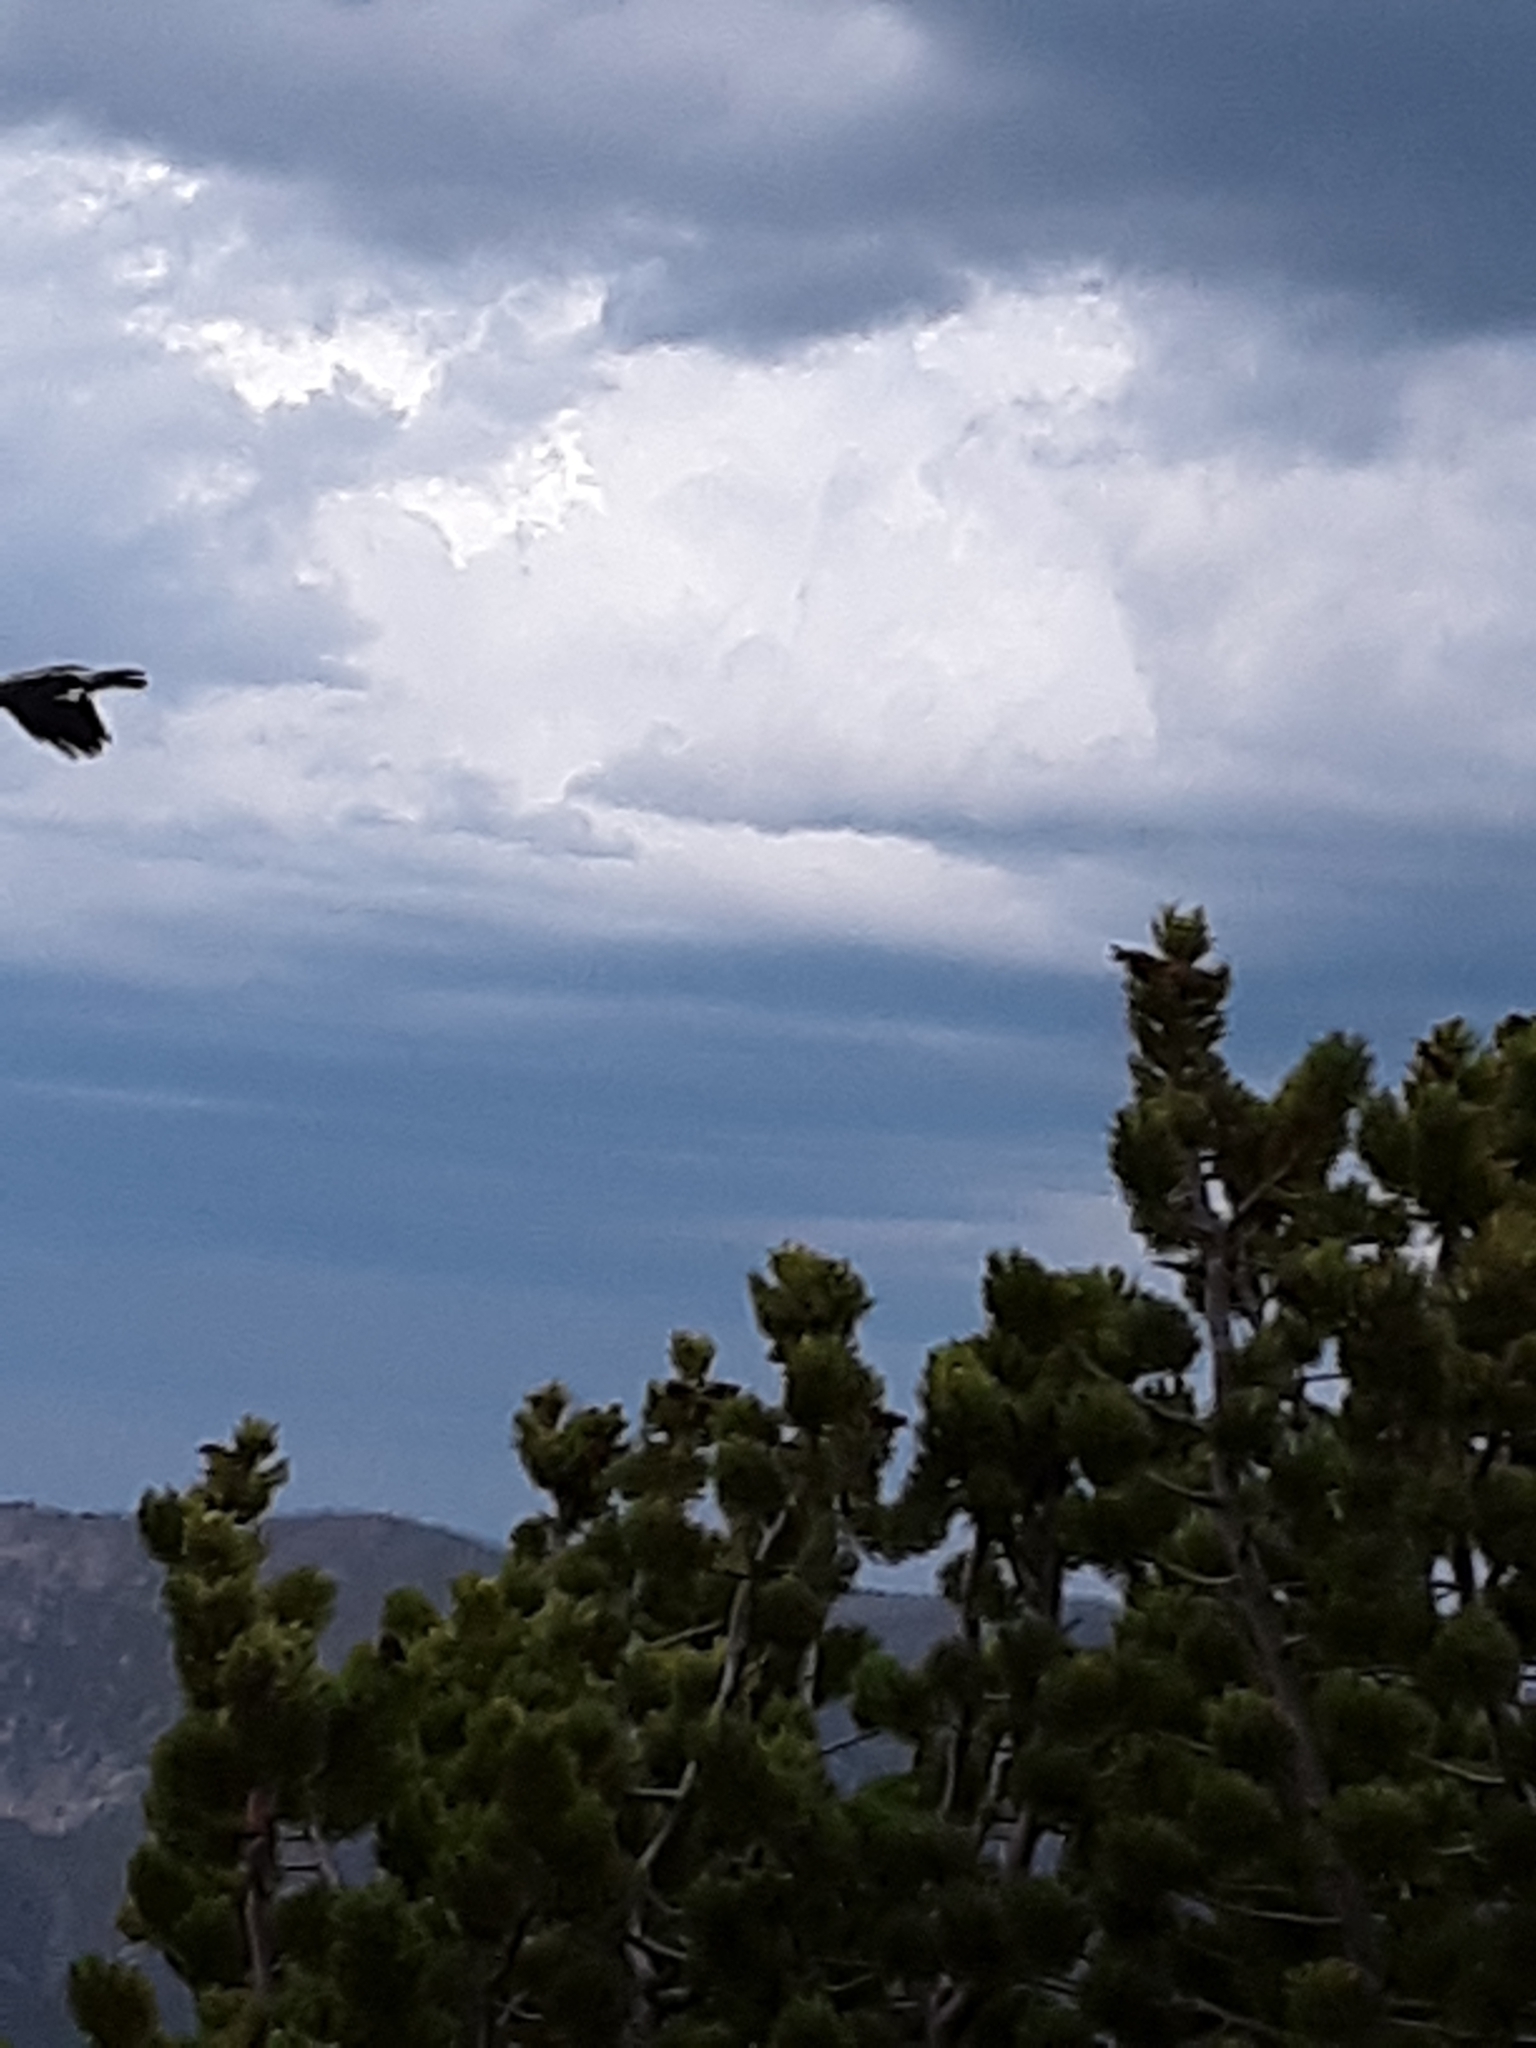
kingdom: Animalia
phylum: Chordata
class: Aves
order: Passeriformes
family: Corvidae
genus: Nucifraga
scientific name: Nucifraga columbiana
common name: Clark's nutcracker
